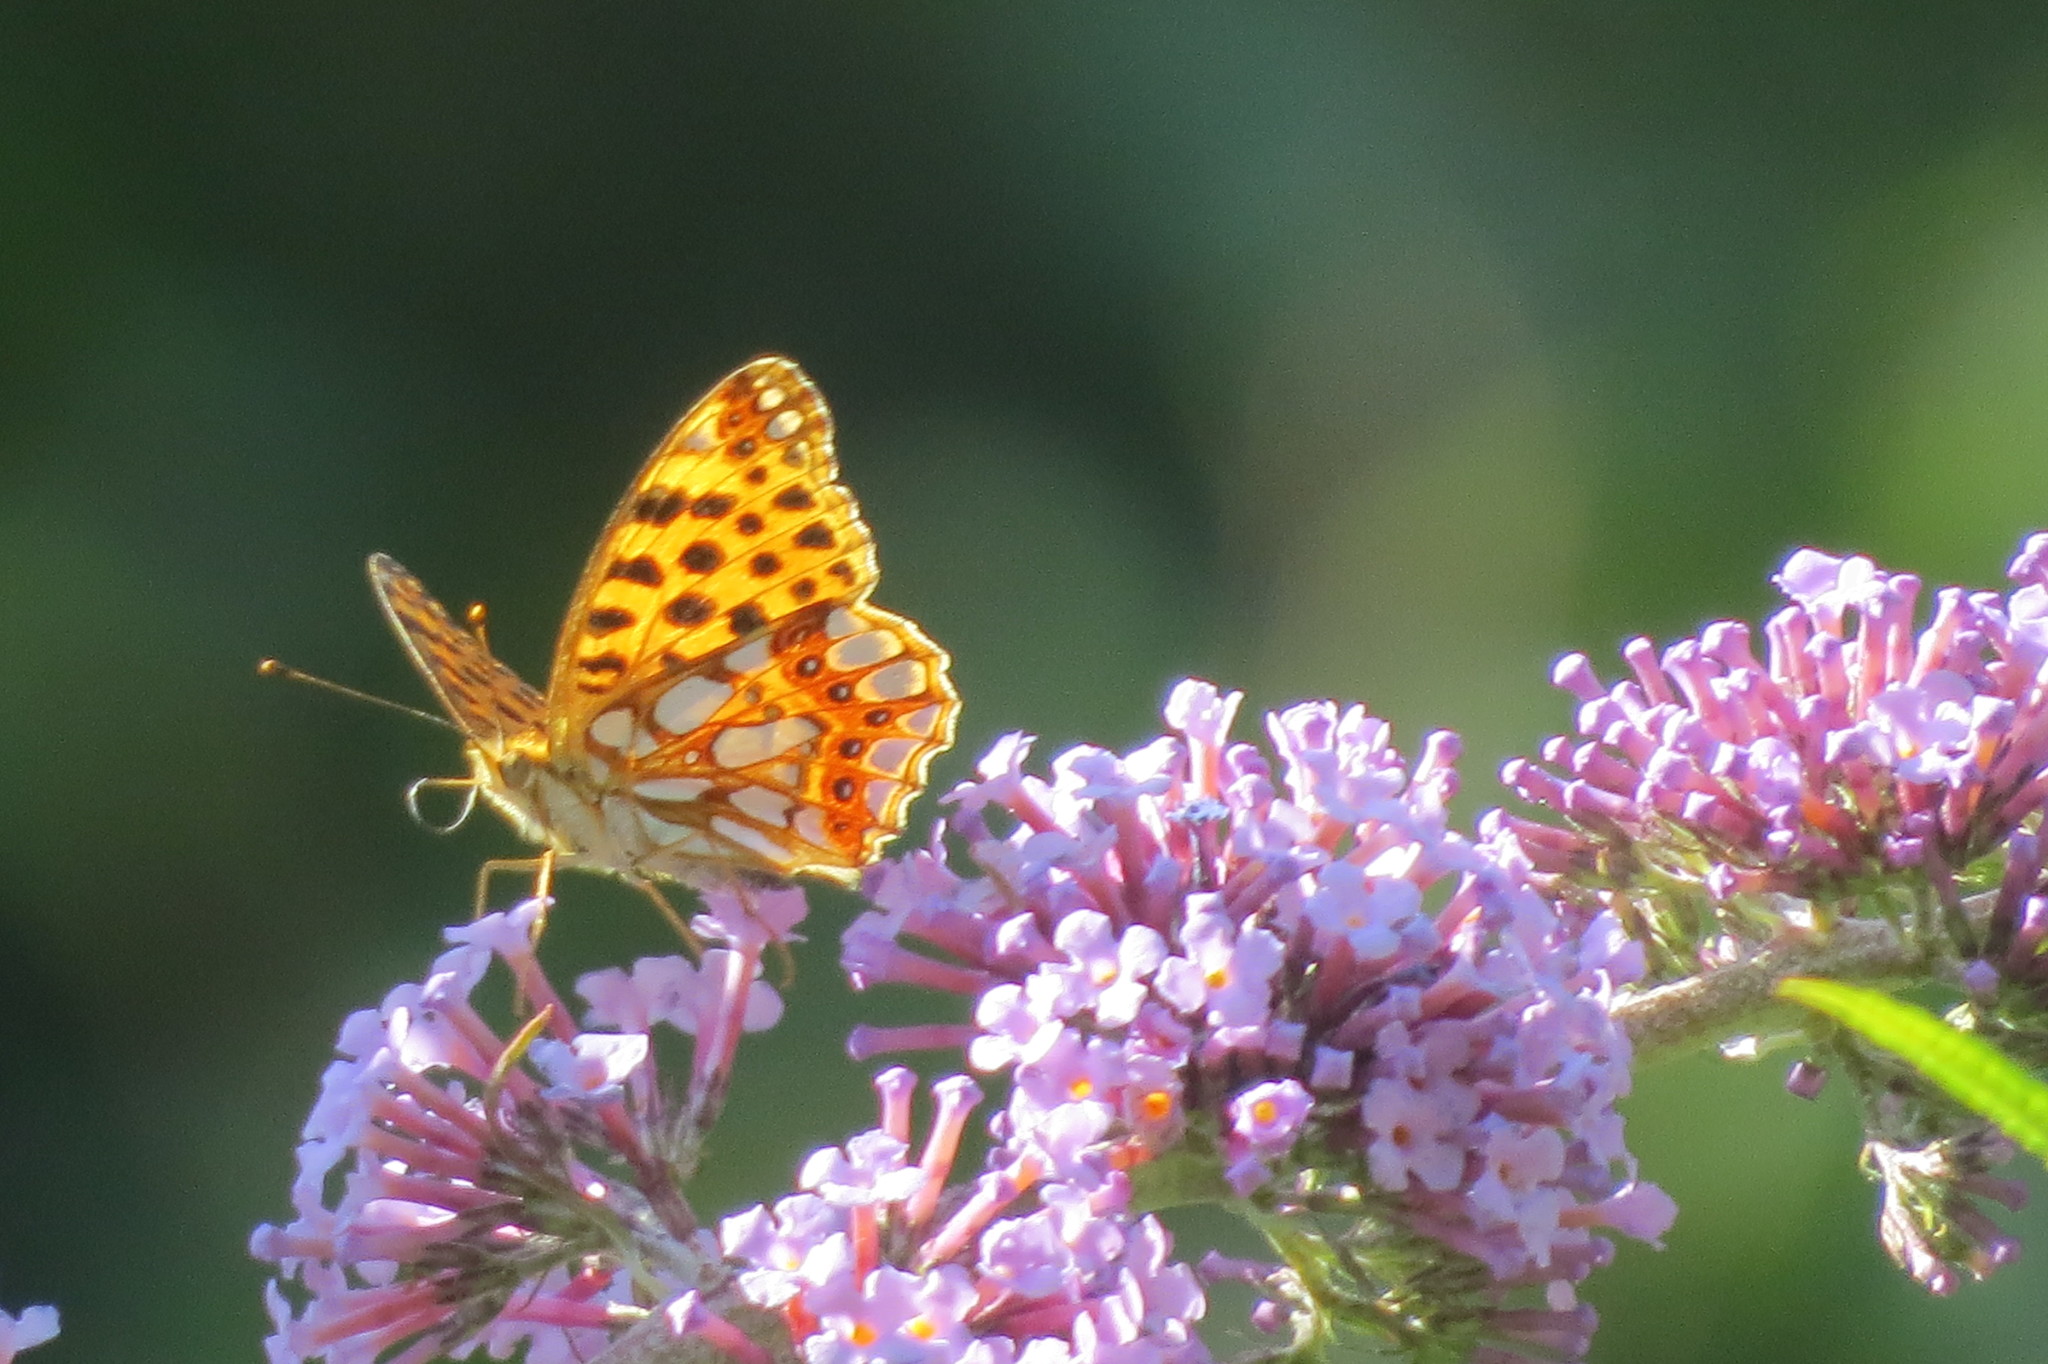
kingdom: Animalia
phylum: Arthropoda
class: Insecta
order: Lepidoptera
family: Nymphalidae
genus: Issoria
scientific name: Issoria lathonia
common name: Queen of spain fritillary
